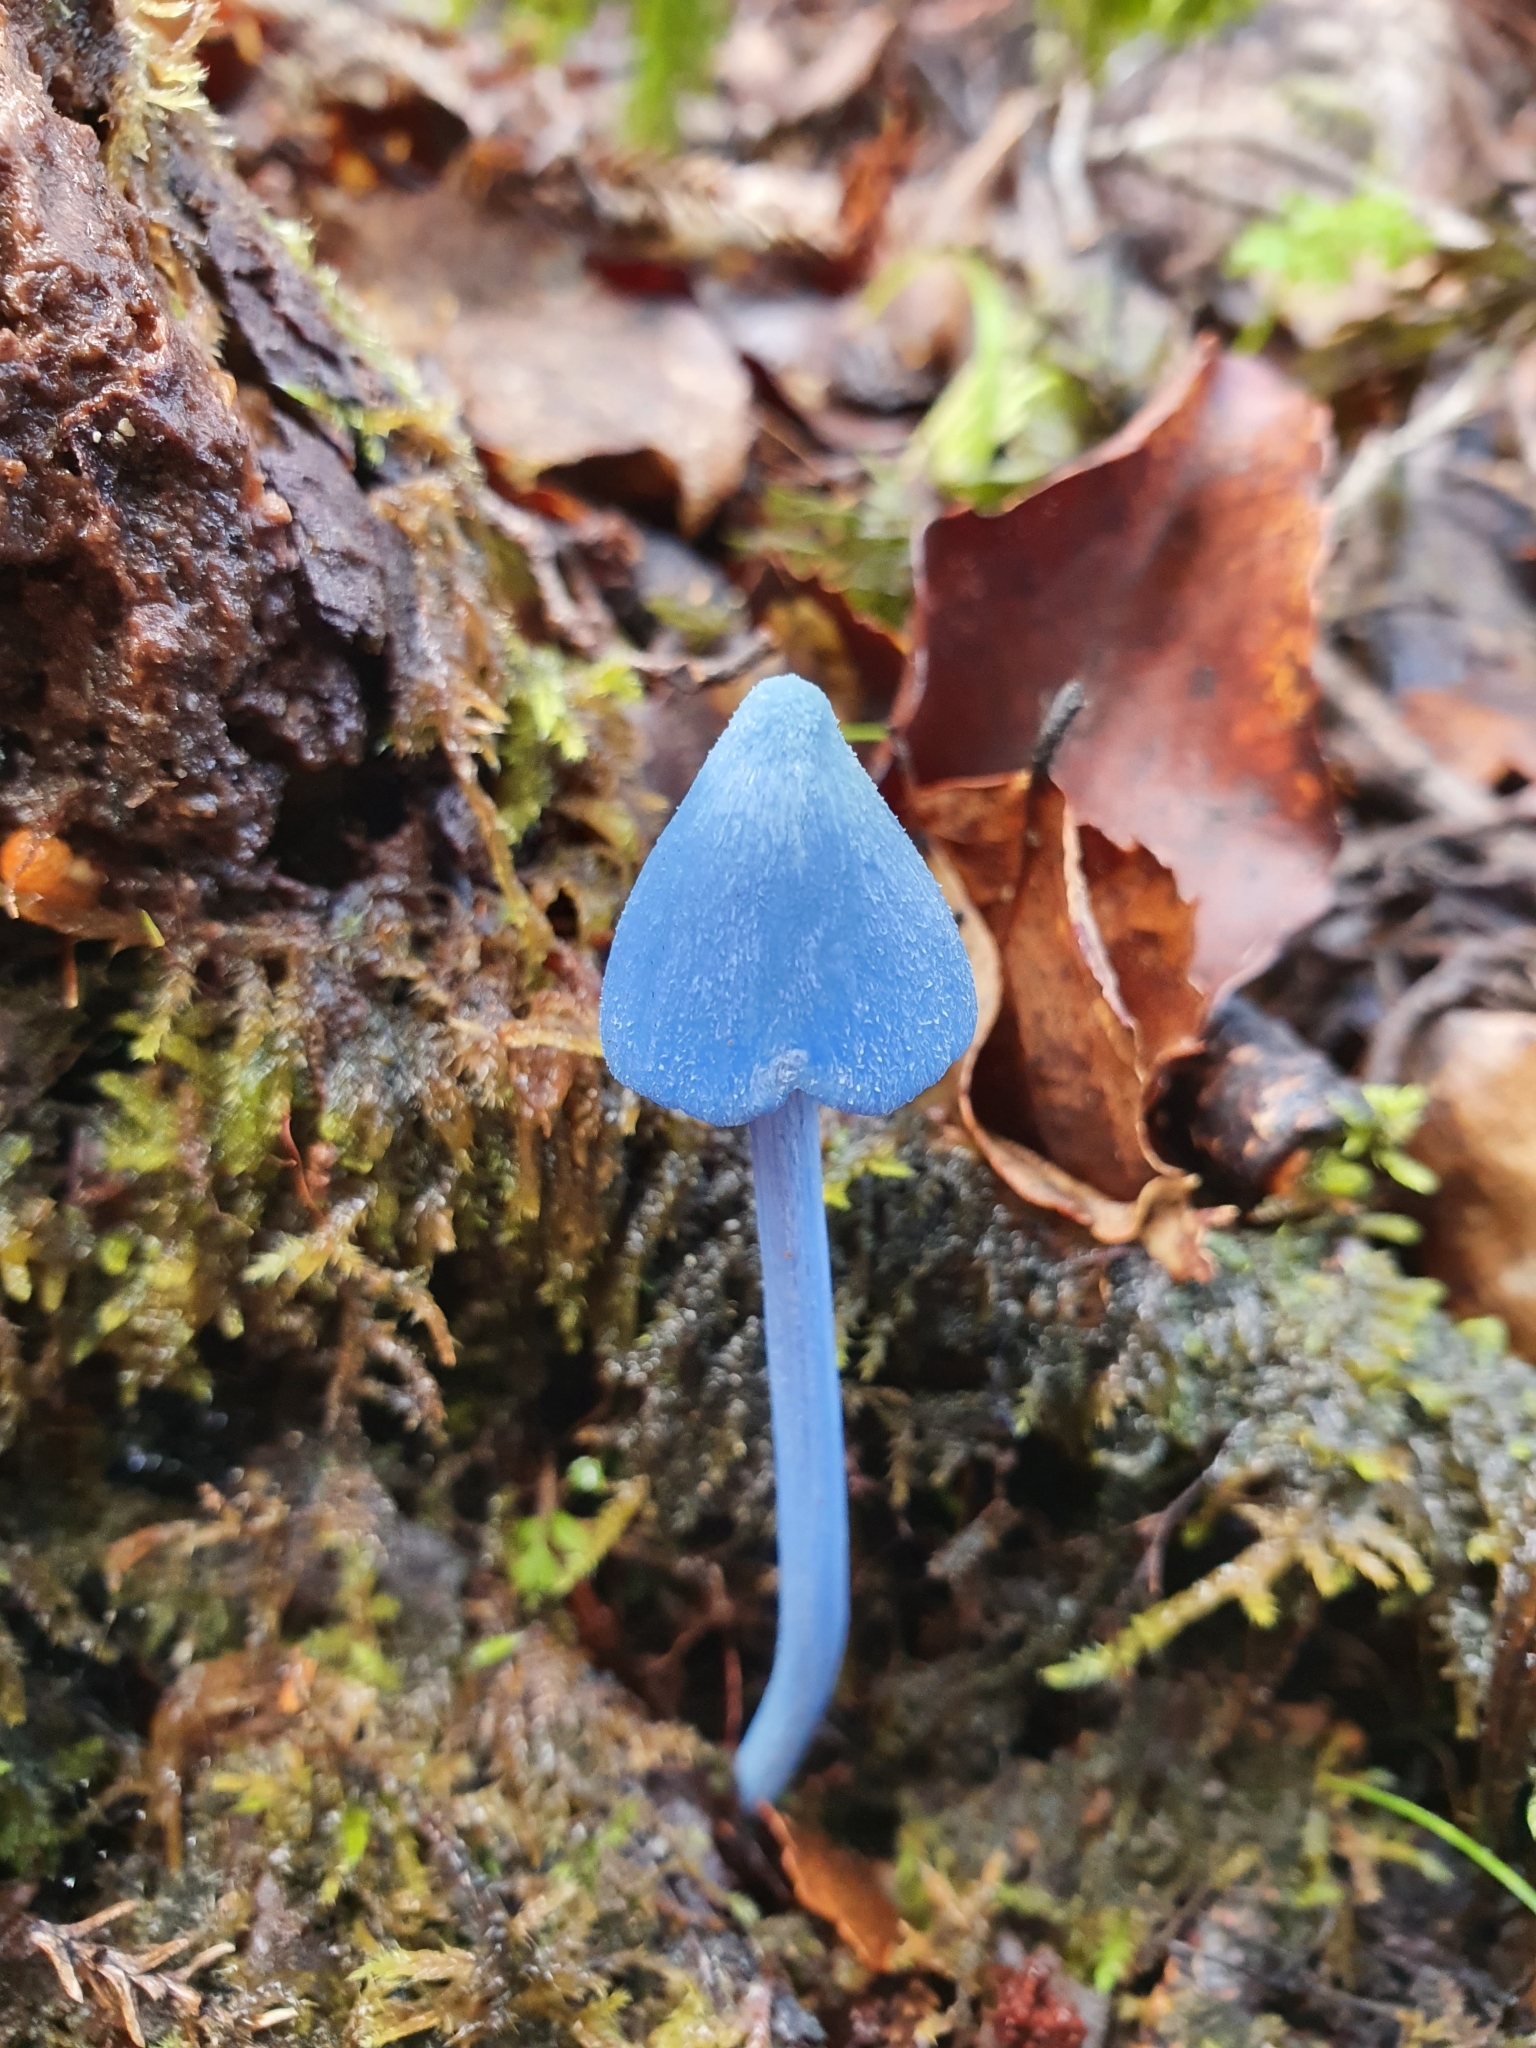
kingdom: Fungi
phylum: Basidiomycota
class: Agaricomycetes
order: Agaricales
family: Entolomataceae
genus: Entoloma
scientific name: Entoloma hochstetteri
